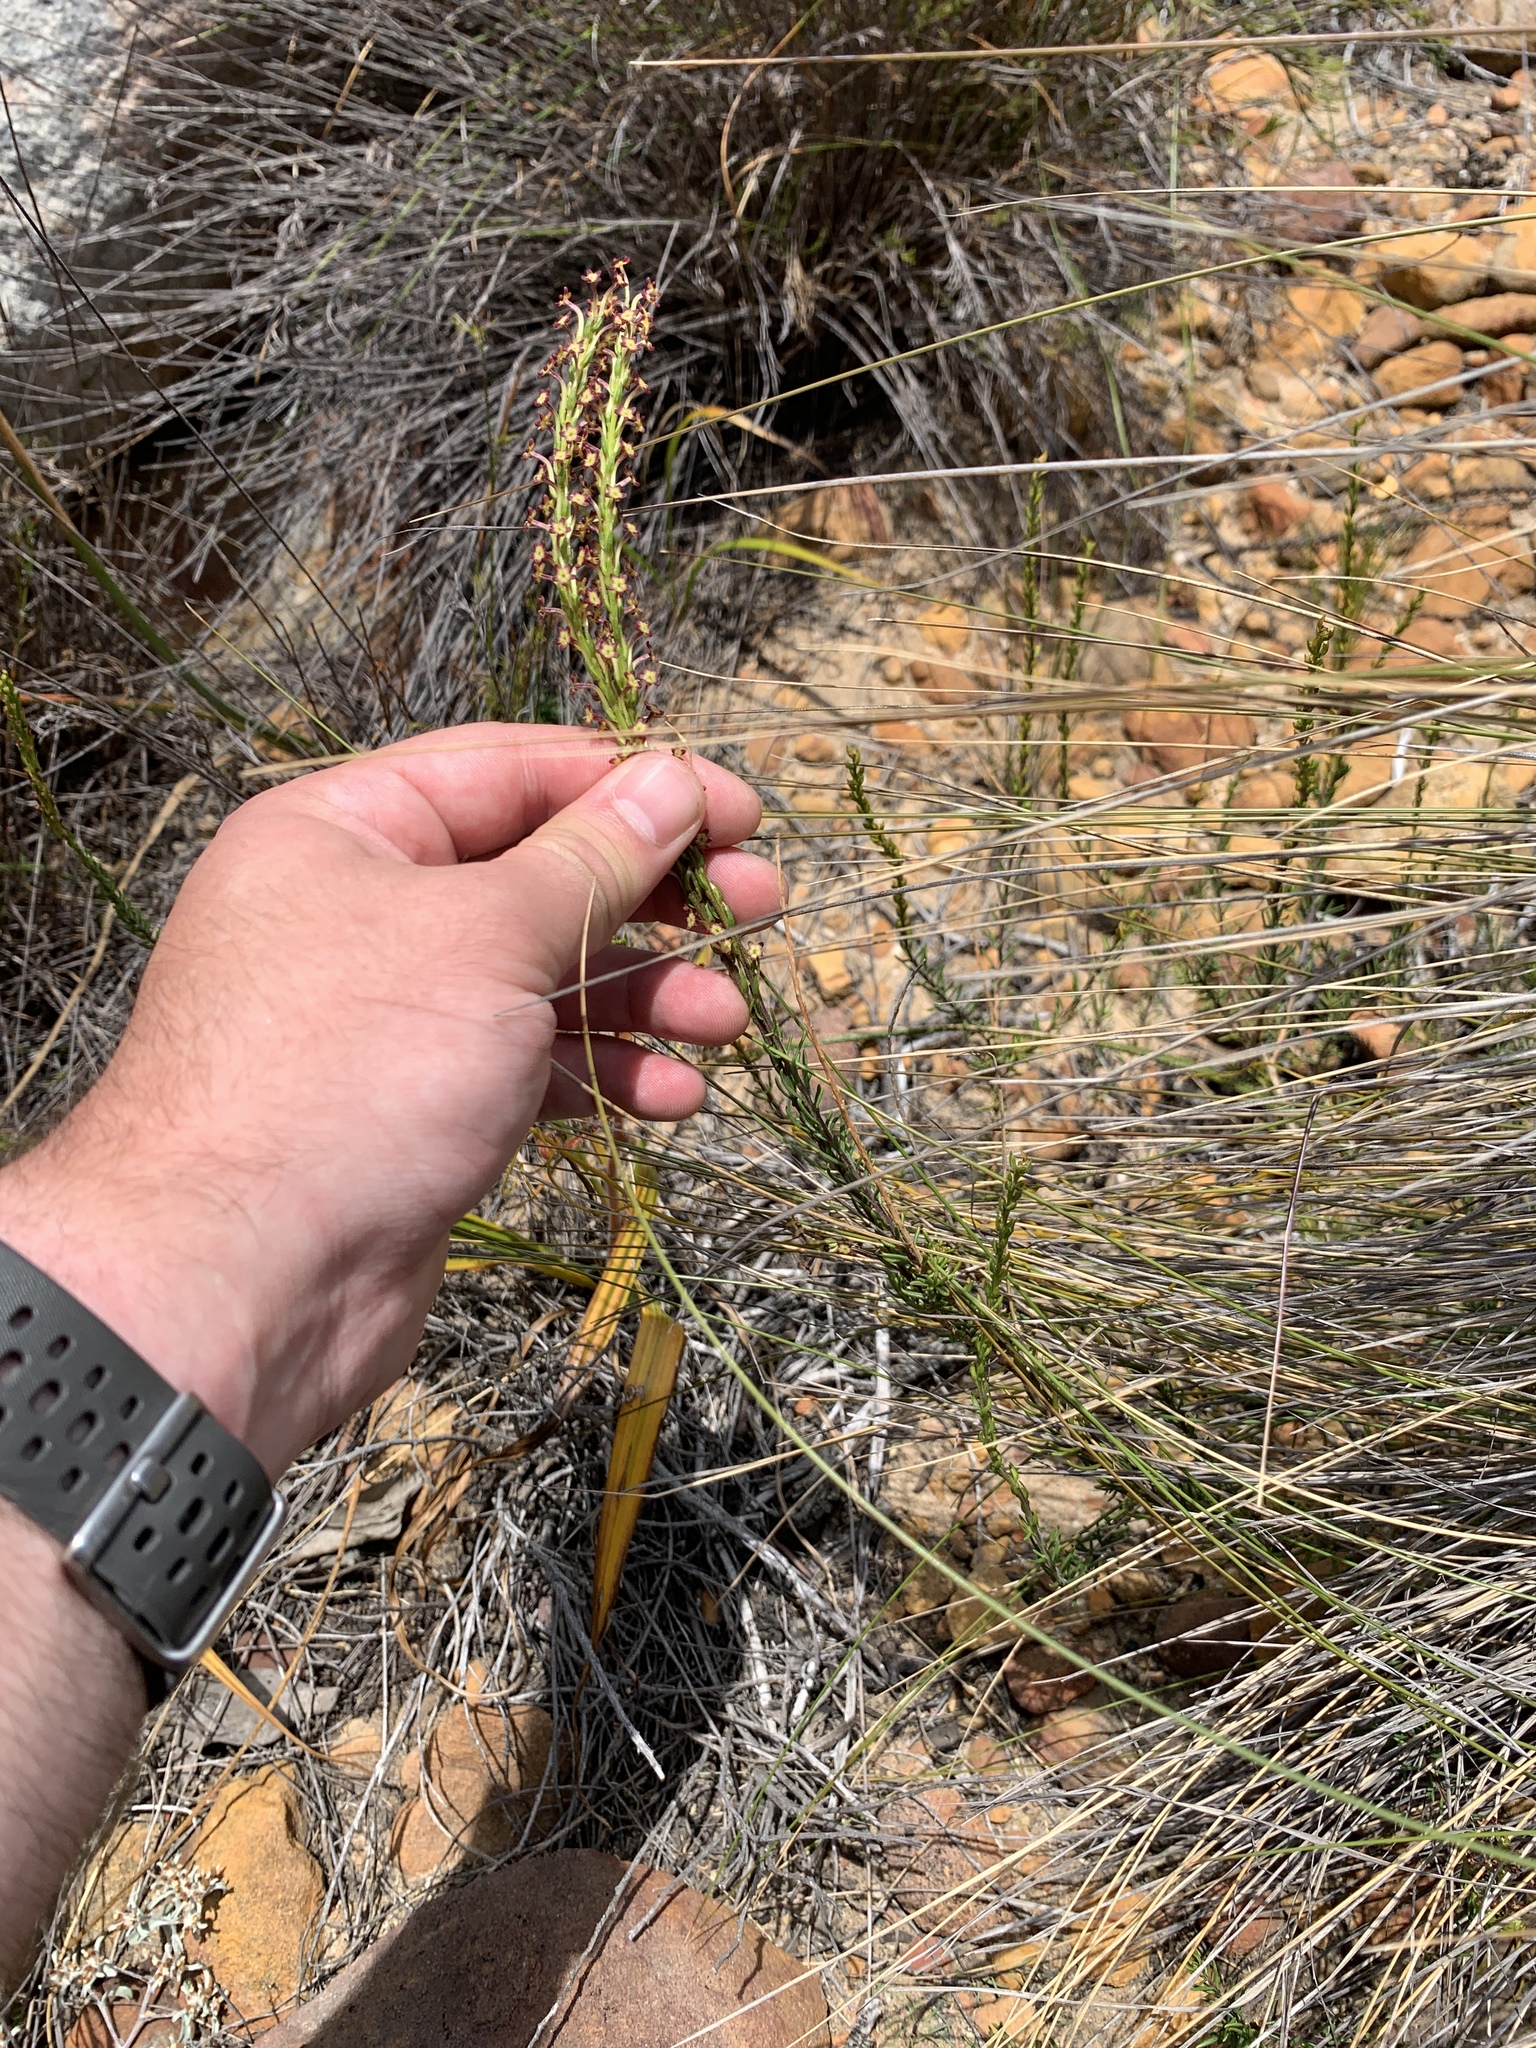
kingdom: Plantae
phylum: Tracheophyta
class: Magnoliopsida
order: Lamiales
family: Scrophulariaceae
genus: Microdon
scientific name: Microdon dubius
